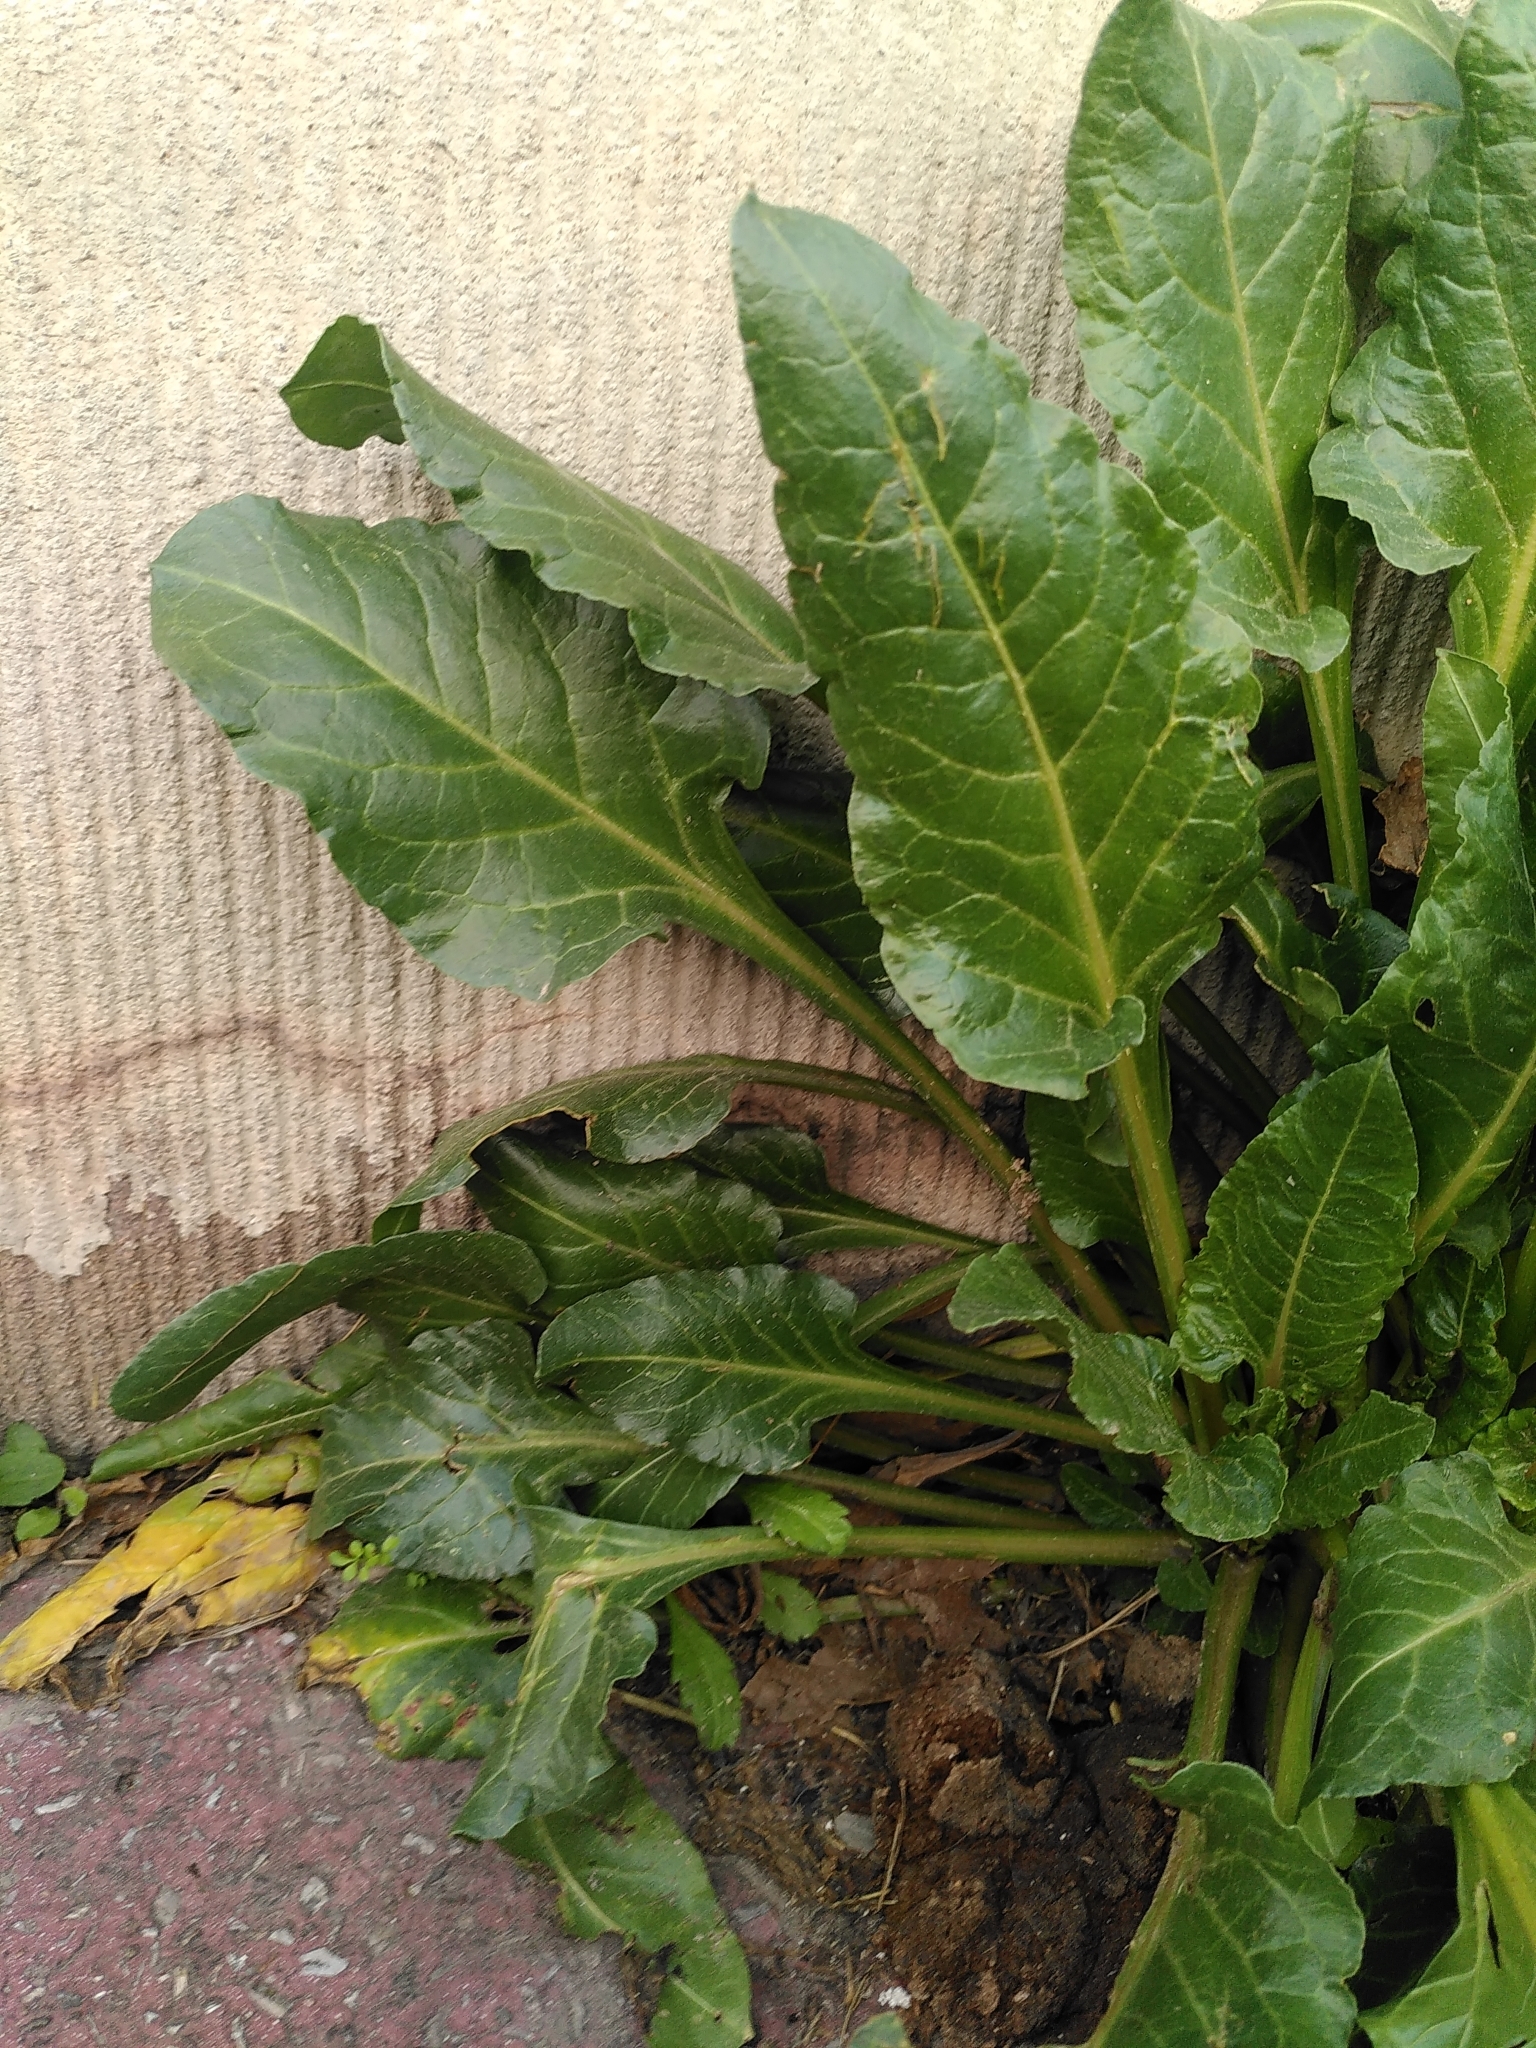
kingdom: Plantae
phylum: Tracheophyta
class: Magnoliopsida
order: Caryophyllales
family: Amaranthaceae
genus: Beta
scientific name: Beta vulgaris
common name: Beet
